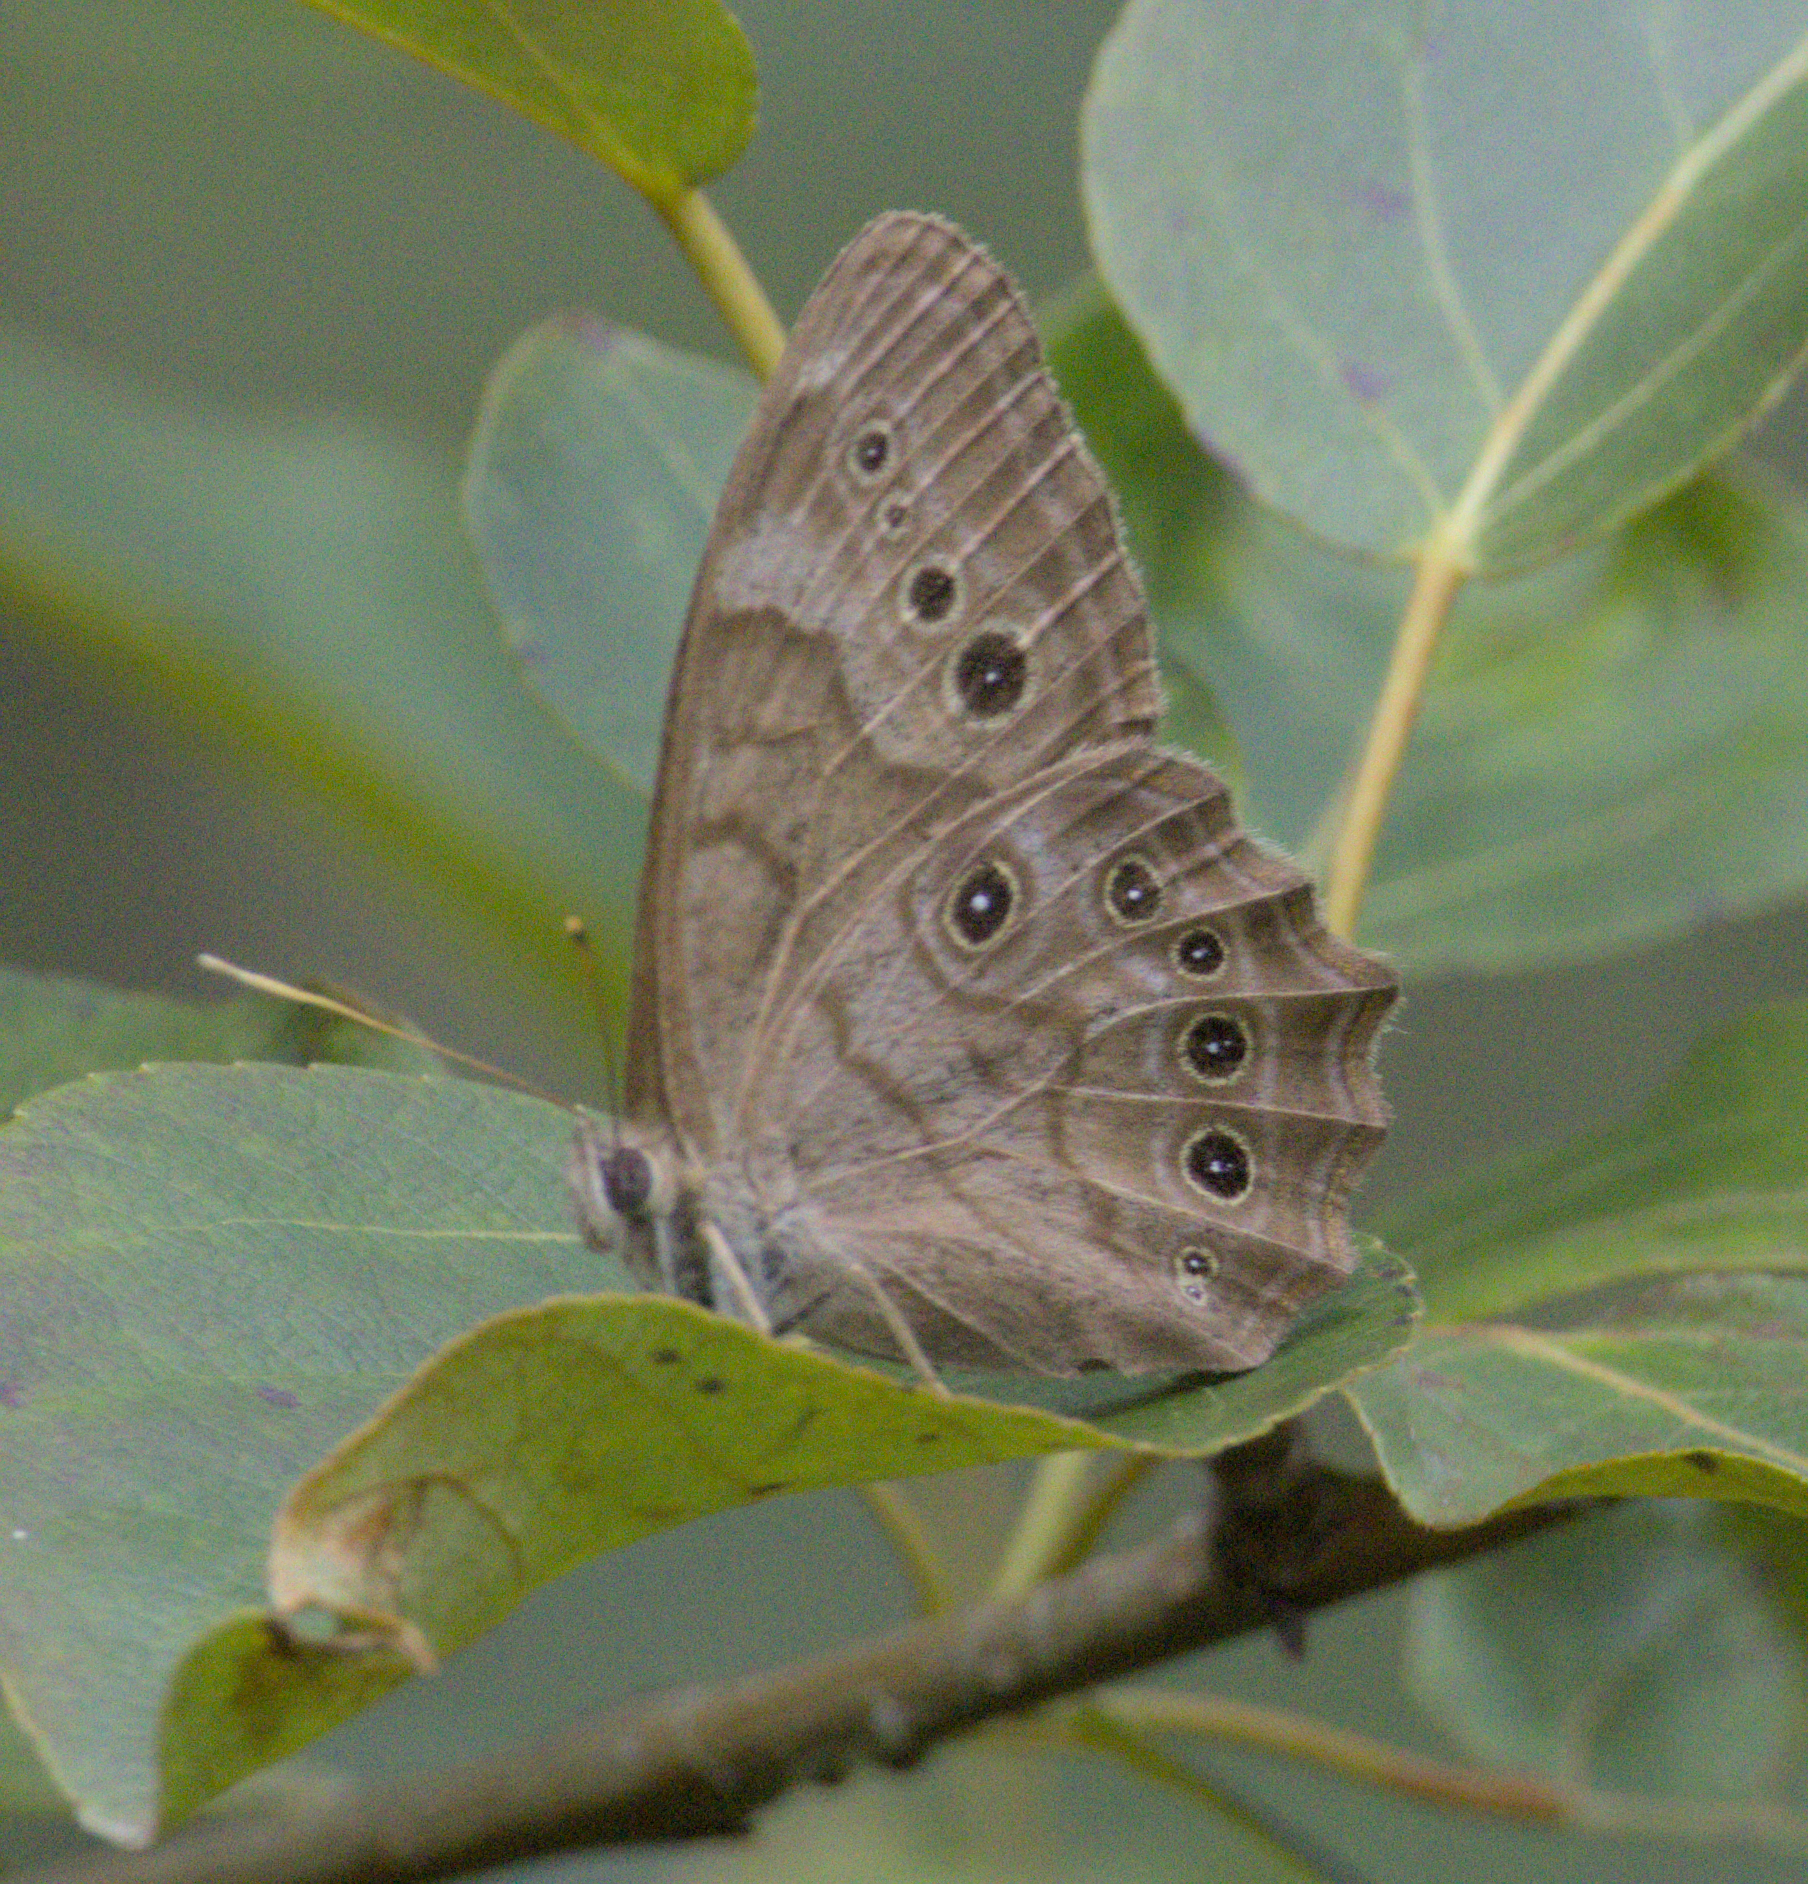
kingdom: Animalia
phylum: Arthropoda
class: Insecta
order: Lepidoptera
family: Nymphalidae
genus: Lethe
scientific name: Lethe anthedon
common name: Northern pearly-eye
